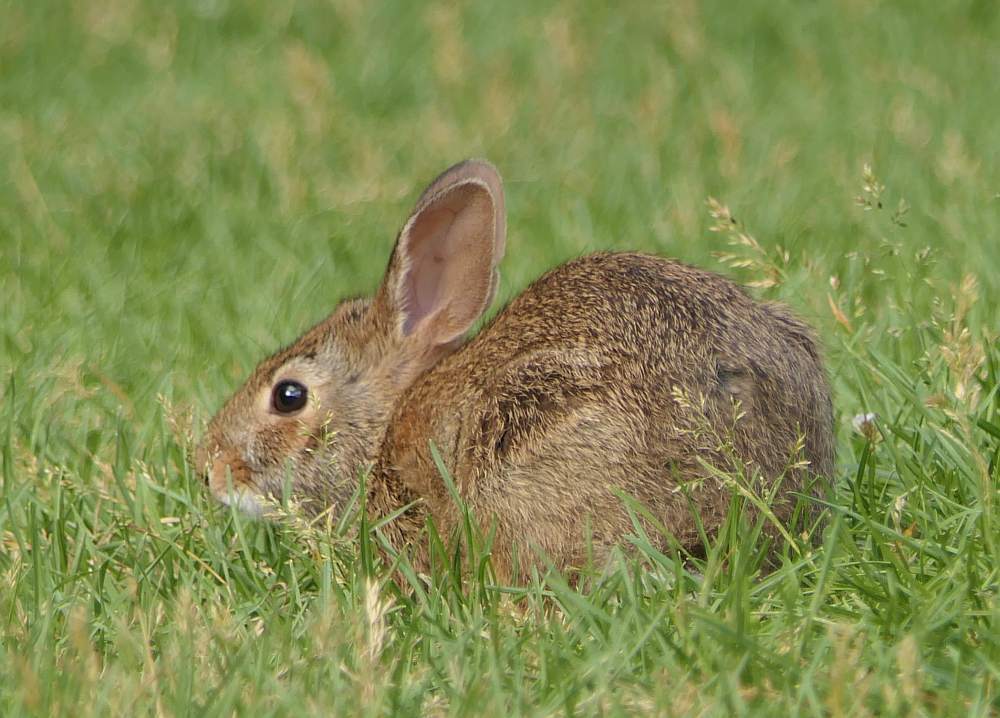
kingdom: Animalia
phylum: Chordata
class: Mammalia
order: Lagomorpha
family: Leporidae
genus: Sylvilagus
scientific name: Sylvilagus floridanus
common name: Eastern cottontail
